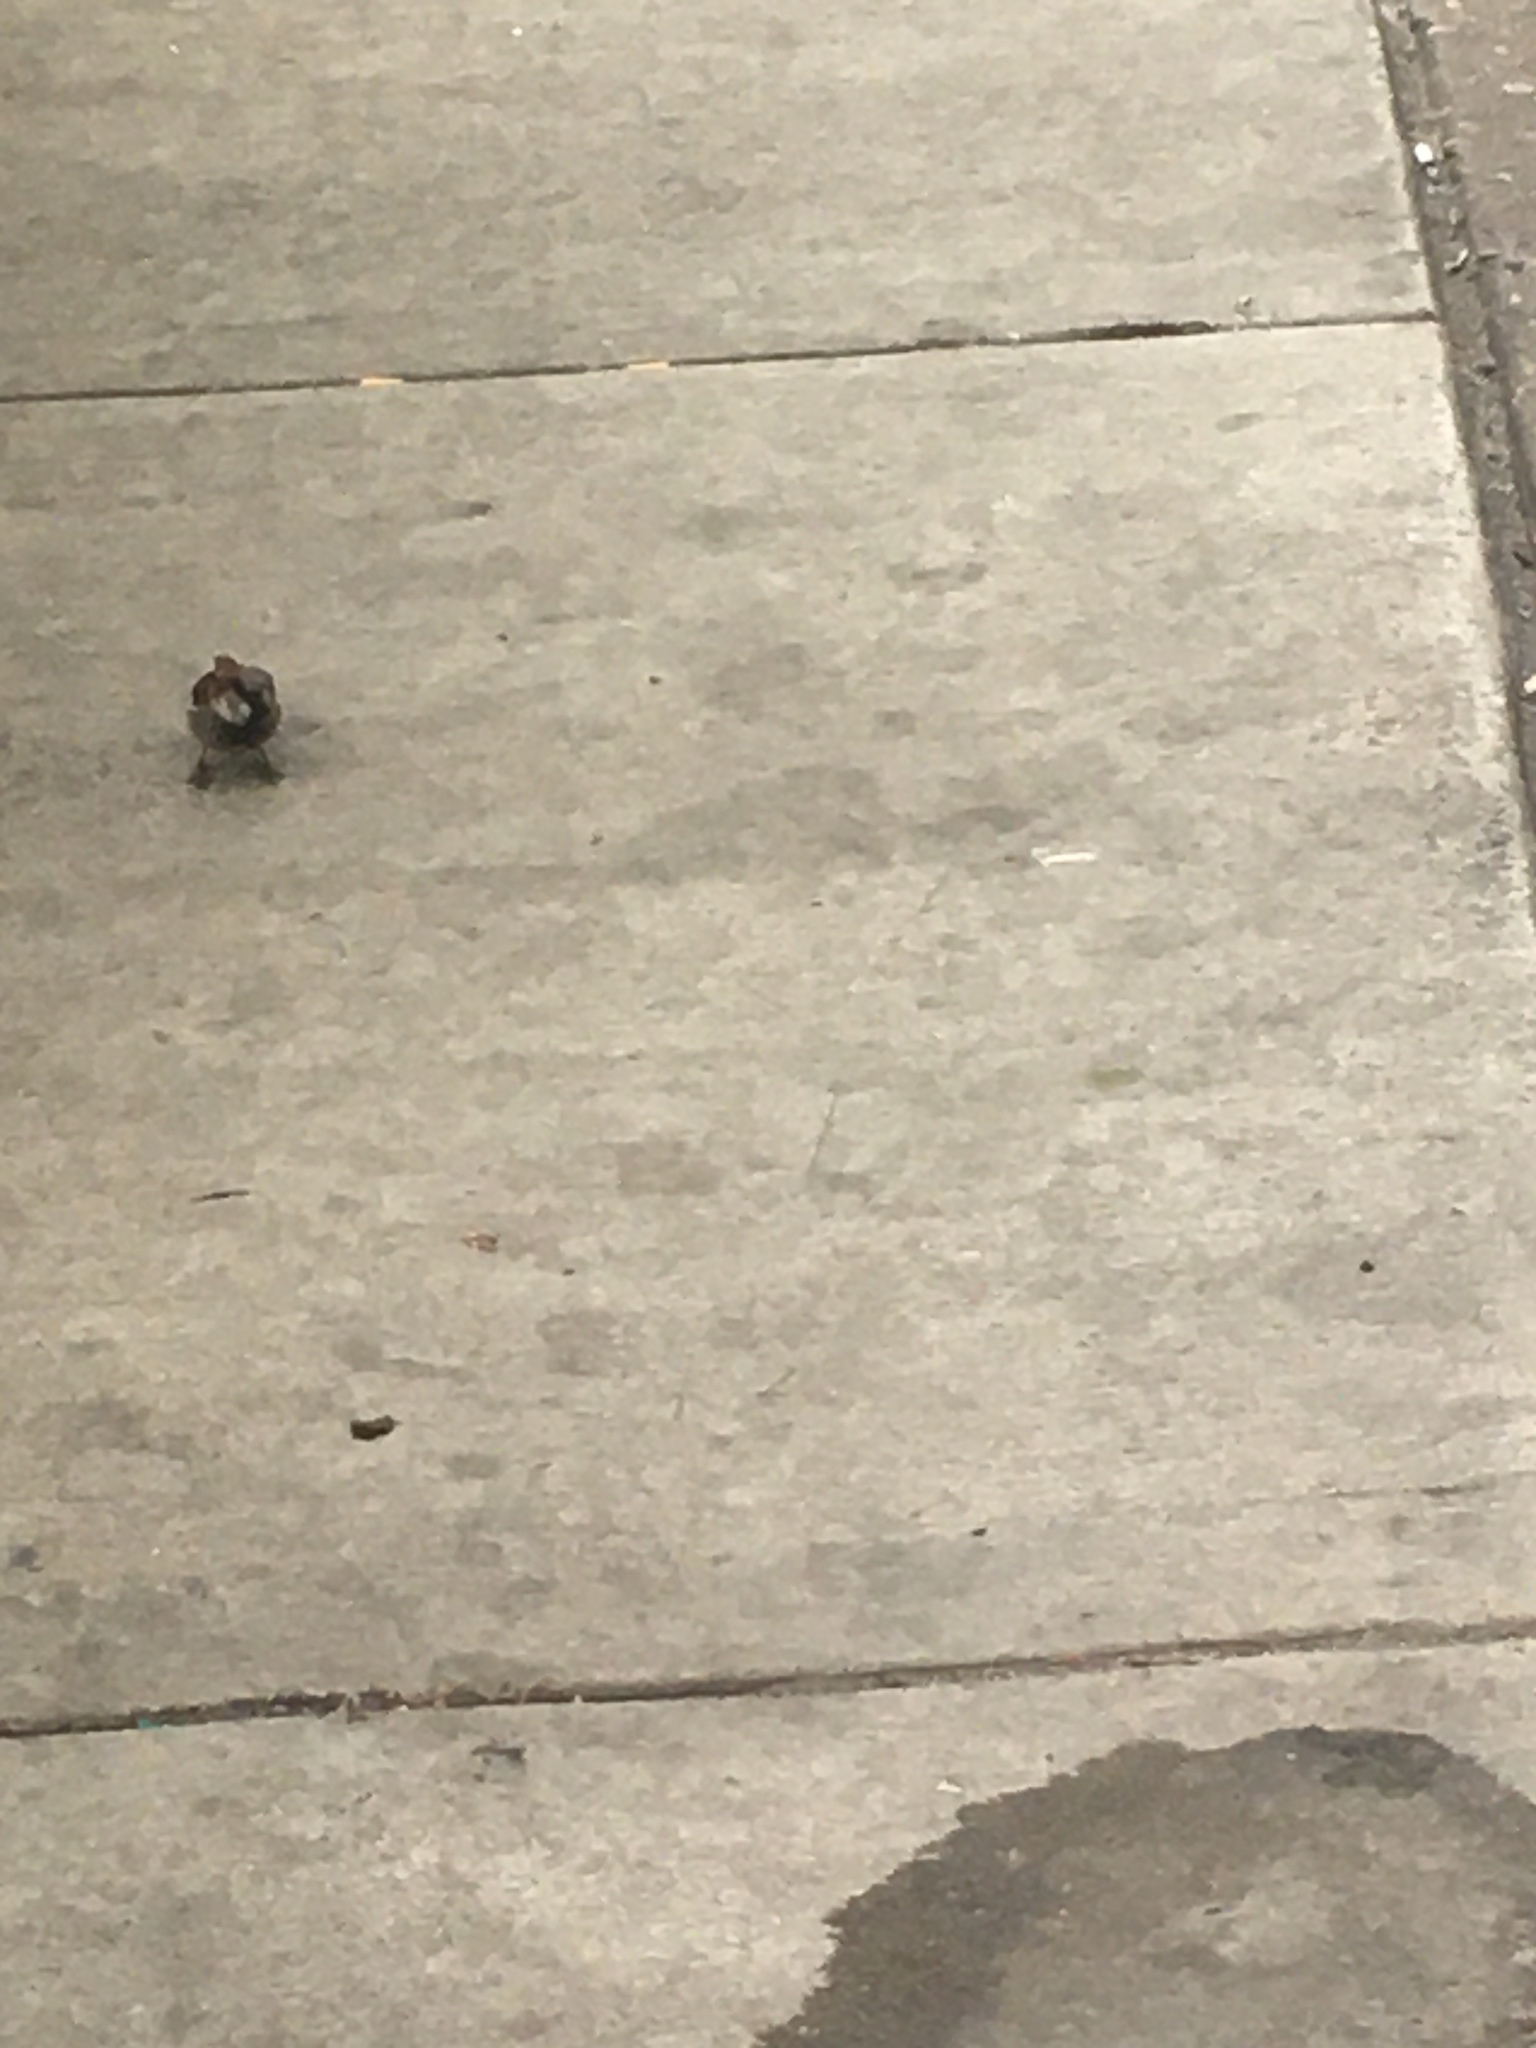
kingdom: Animalia
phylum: Chordata
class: Aves
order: Passeriformes
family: Passeridae
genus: Passer
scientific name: Passer domesticus
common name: House sparrow
